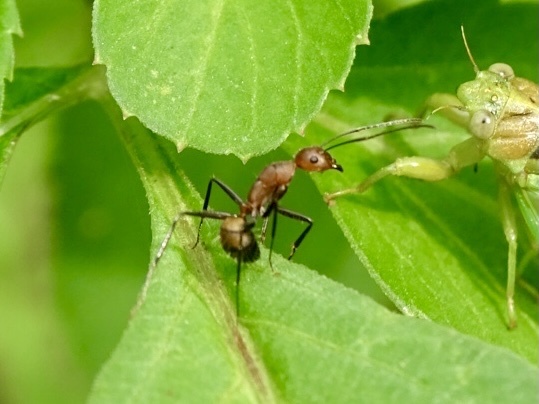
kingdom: Animalia
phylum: Arthropoda
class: Insecta
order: Hymenoptera
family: Formicidae
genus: Camponotus
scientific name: Camponotus nicobarensis
